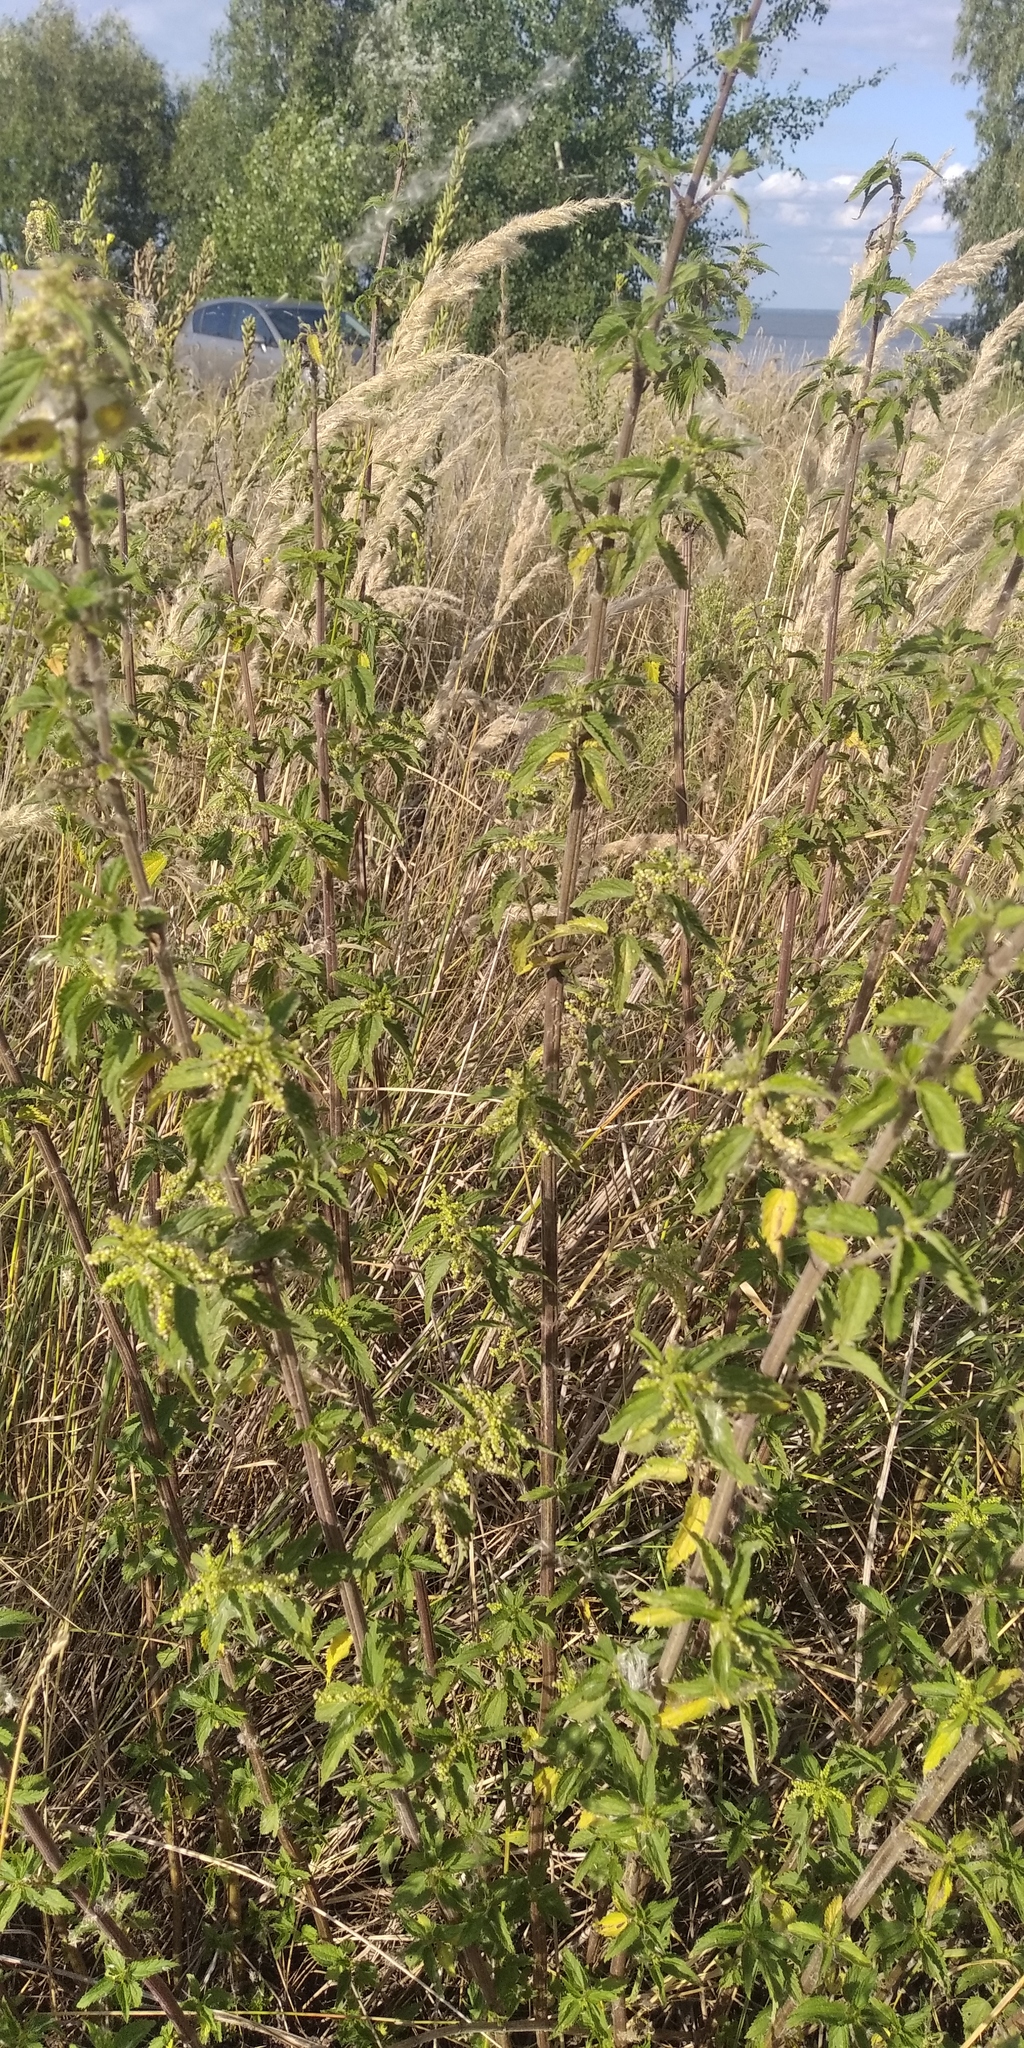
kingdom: Plantae
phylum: Tracheophyta
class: Magnoliopsida
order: Rosales
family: Urticaceae
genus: Urtica
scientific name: Urtica dioica
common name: Common nettle
